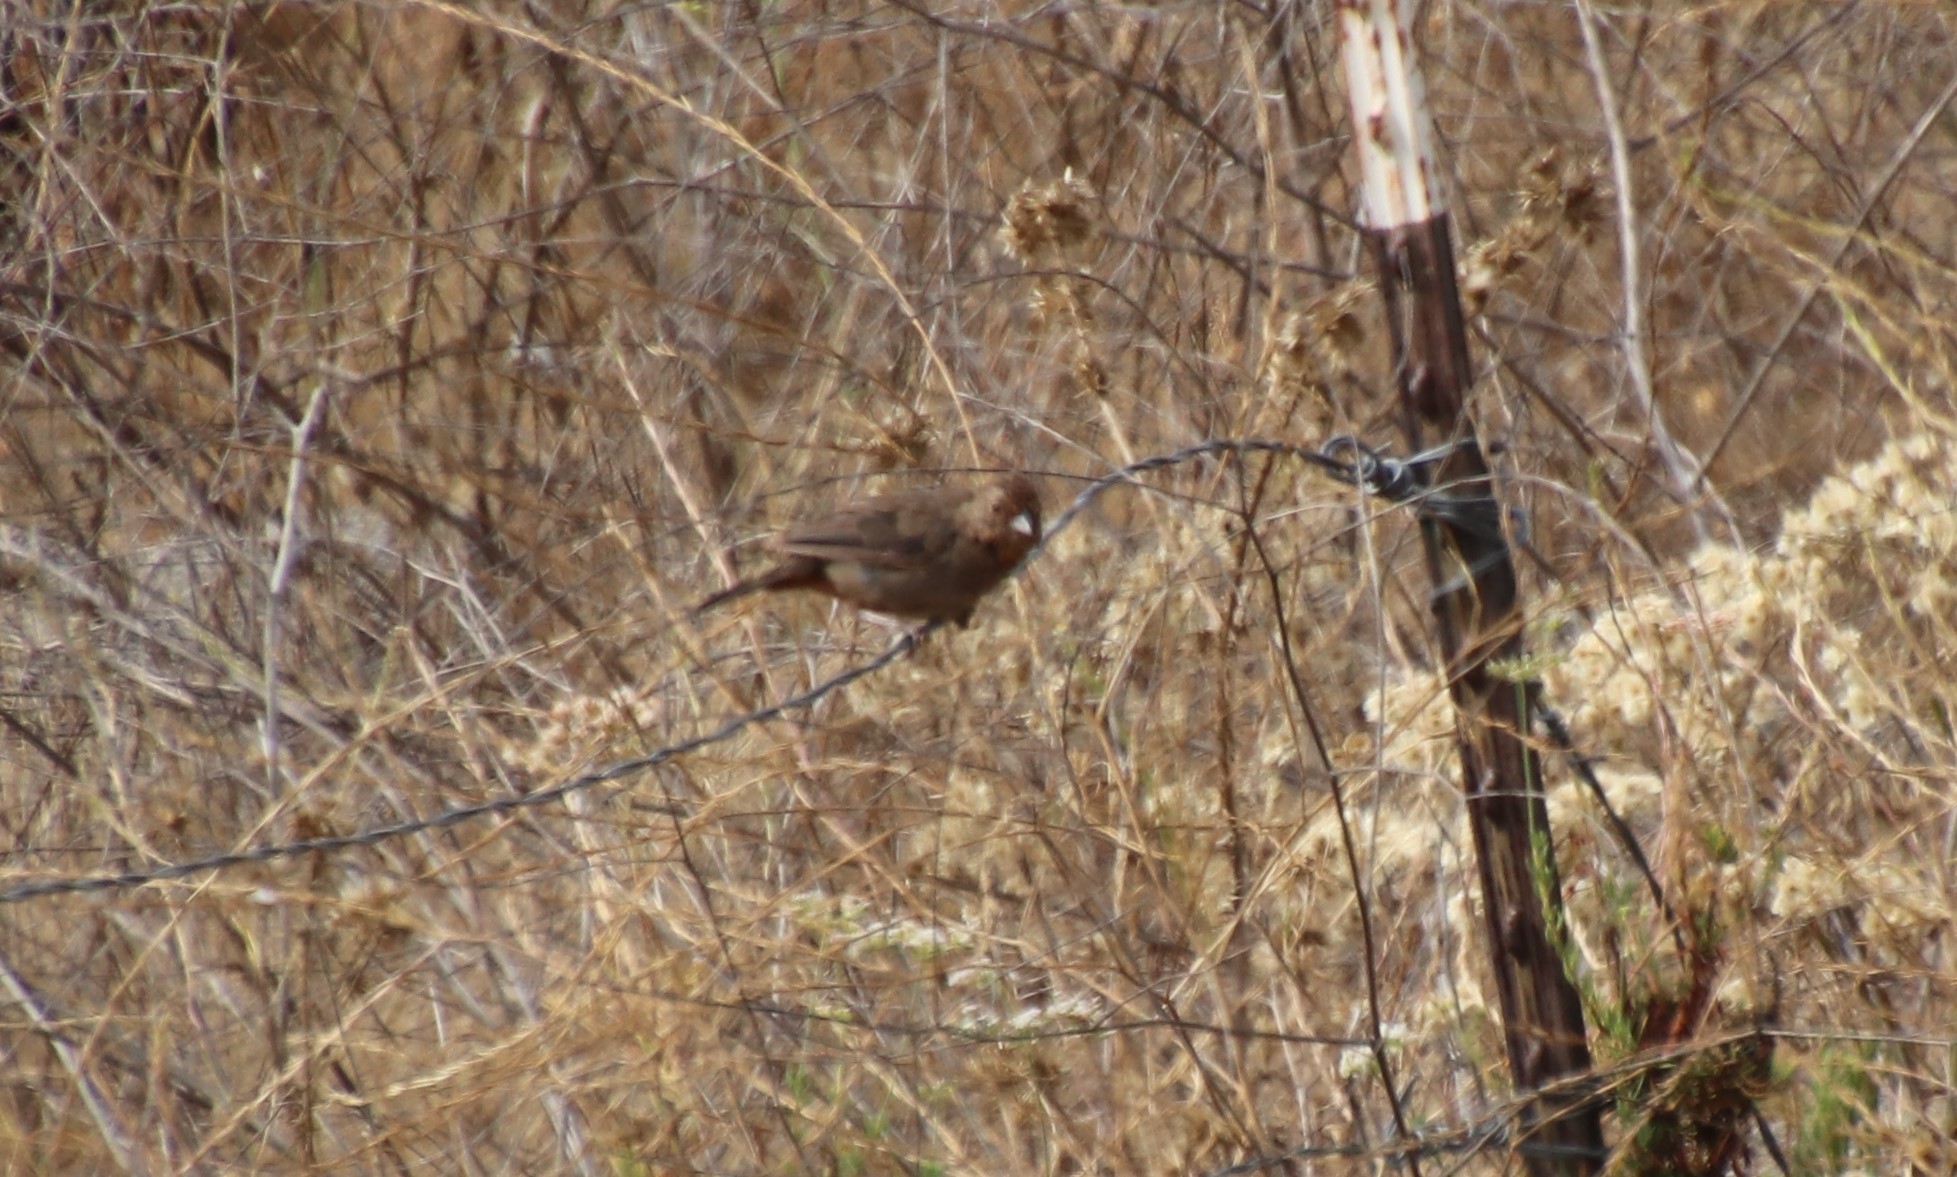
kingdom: Animalia
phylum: Chordata
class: Aves
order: Passeriformes
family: Passerellidae
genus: Melozone
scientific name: Melozone crissalis
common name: California towhee
